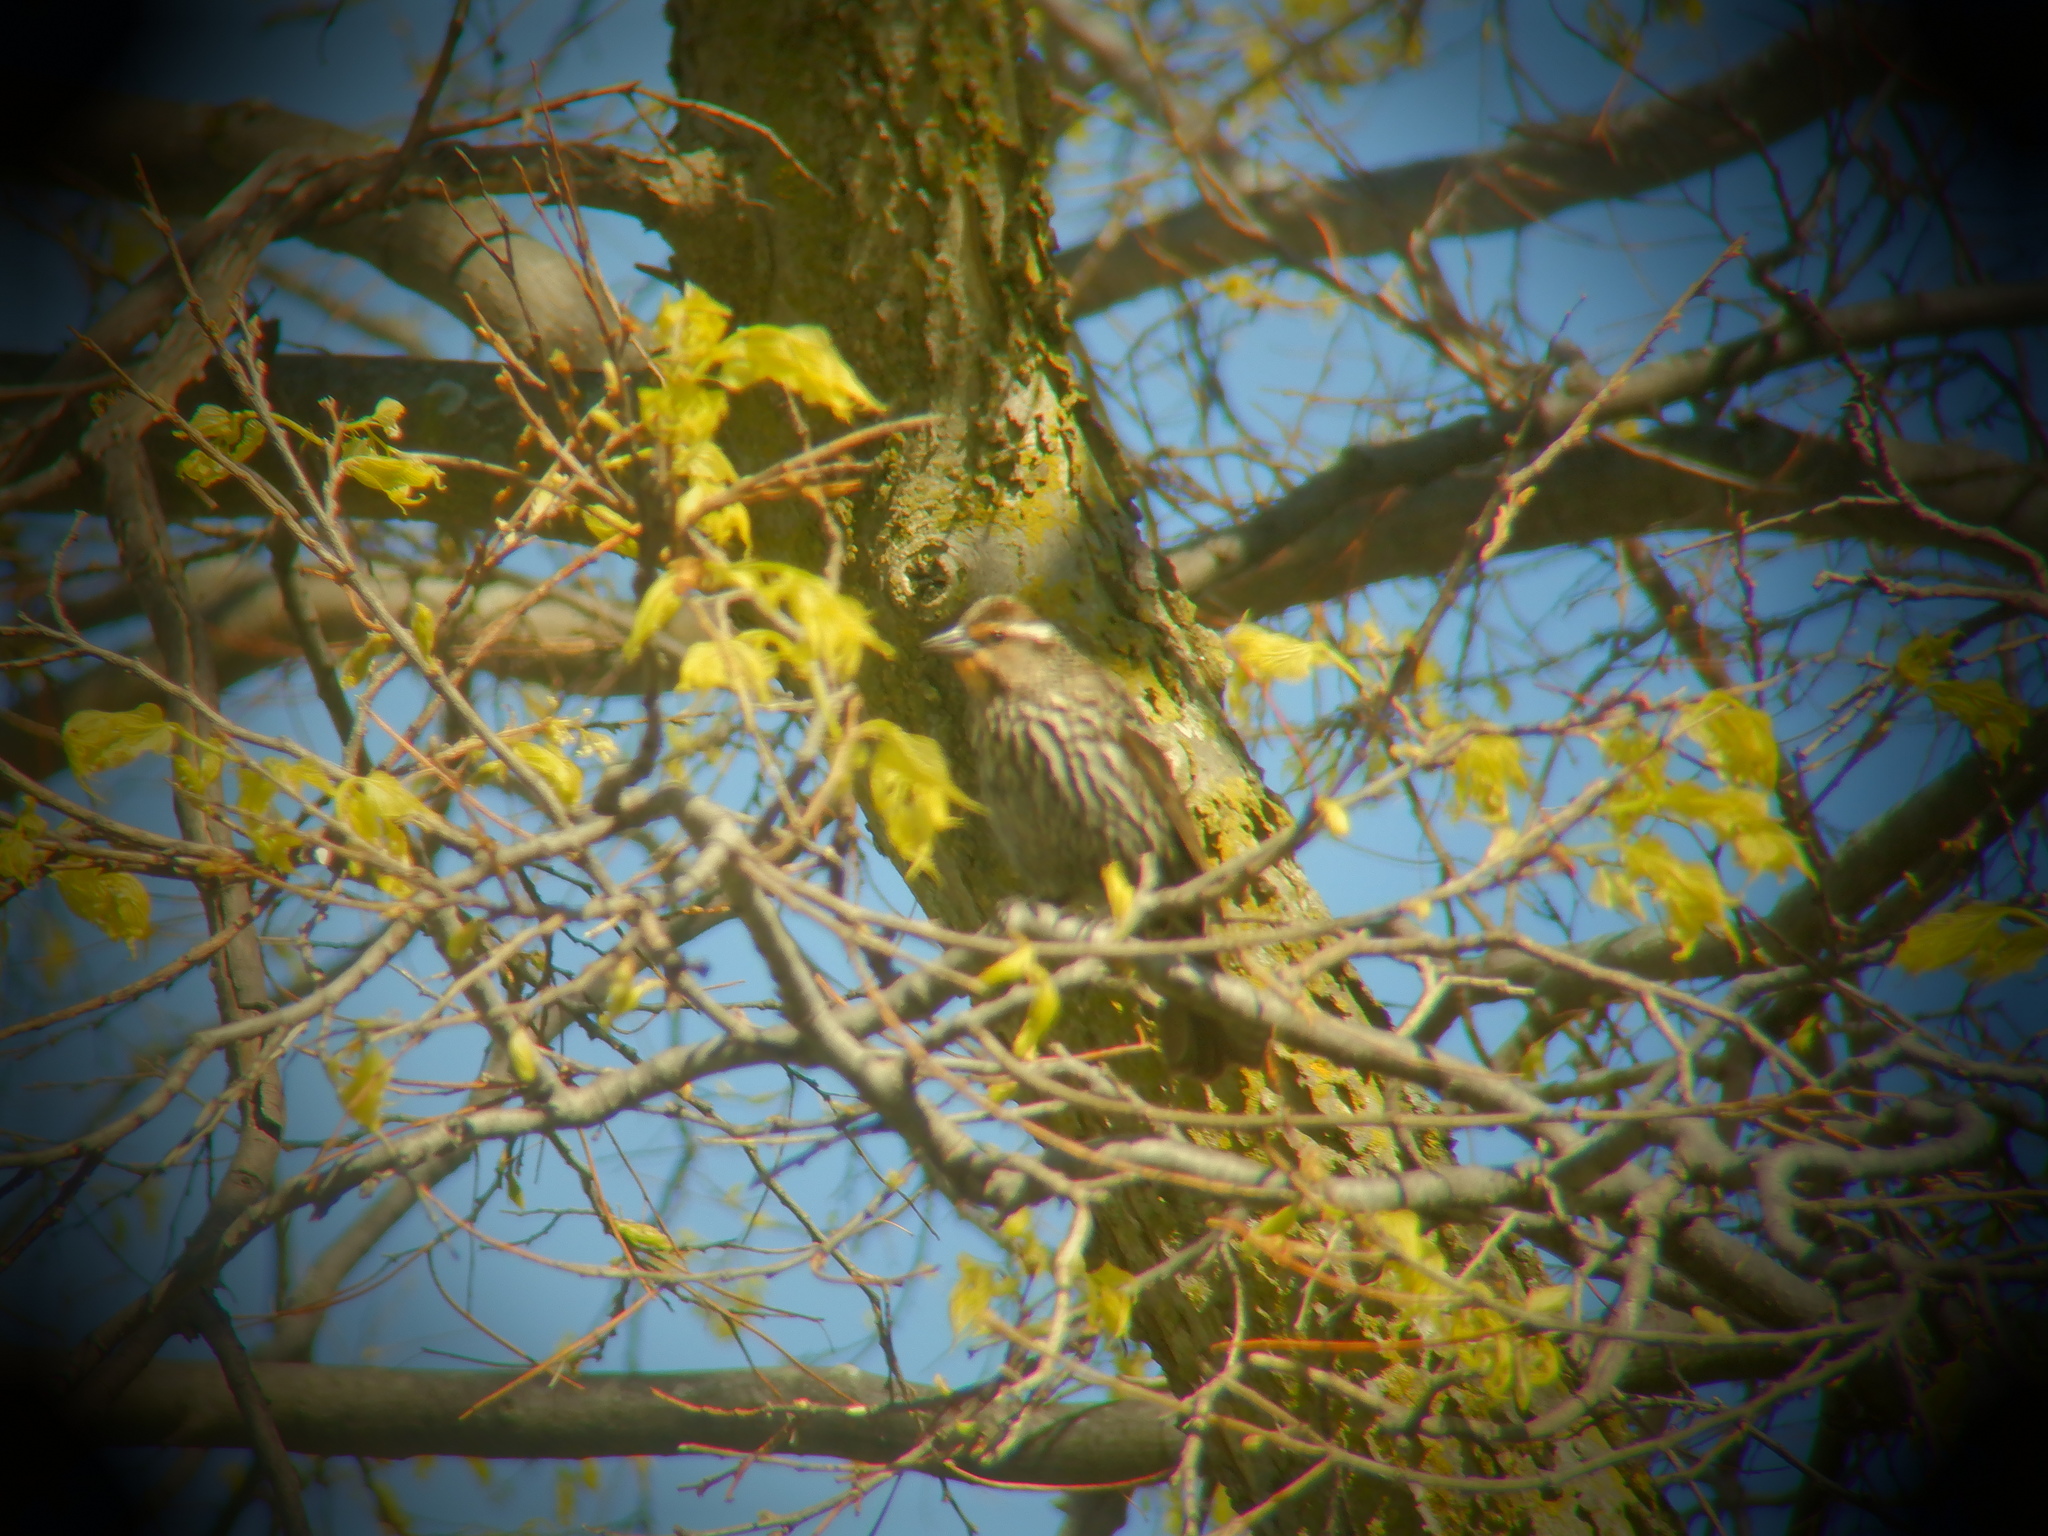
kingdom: Animalia
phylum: Chordata
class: Aves
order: Passeriformes
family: Icteridae
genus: Agelaius
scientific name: Agelaius phoeniceus
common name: Red-winged blackbird
